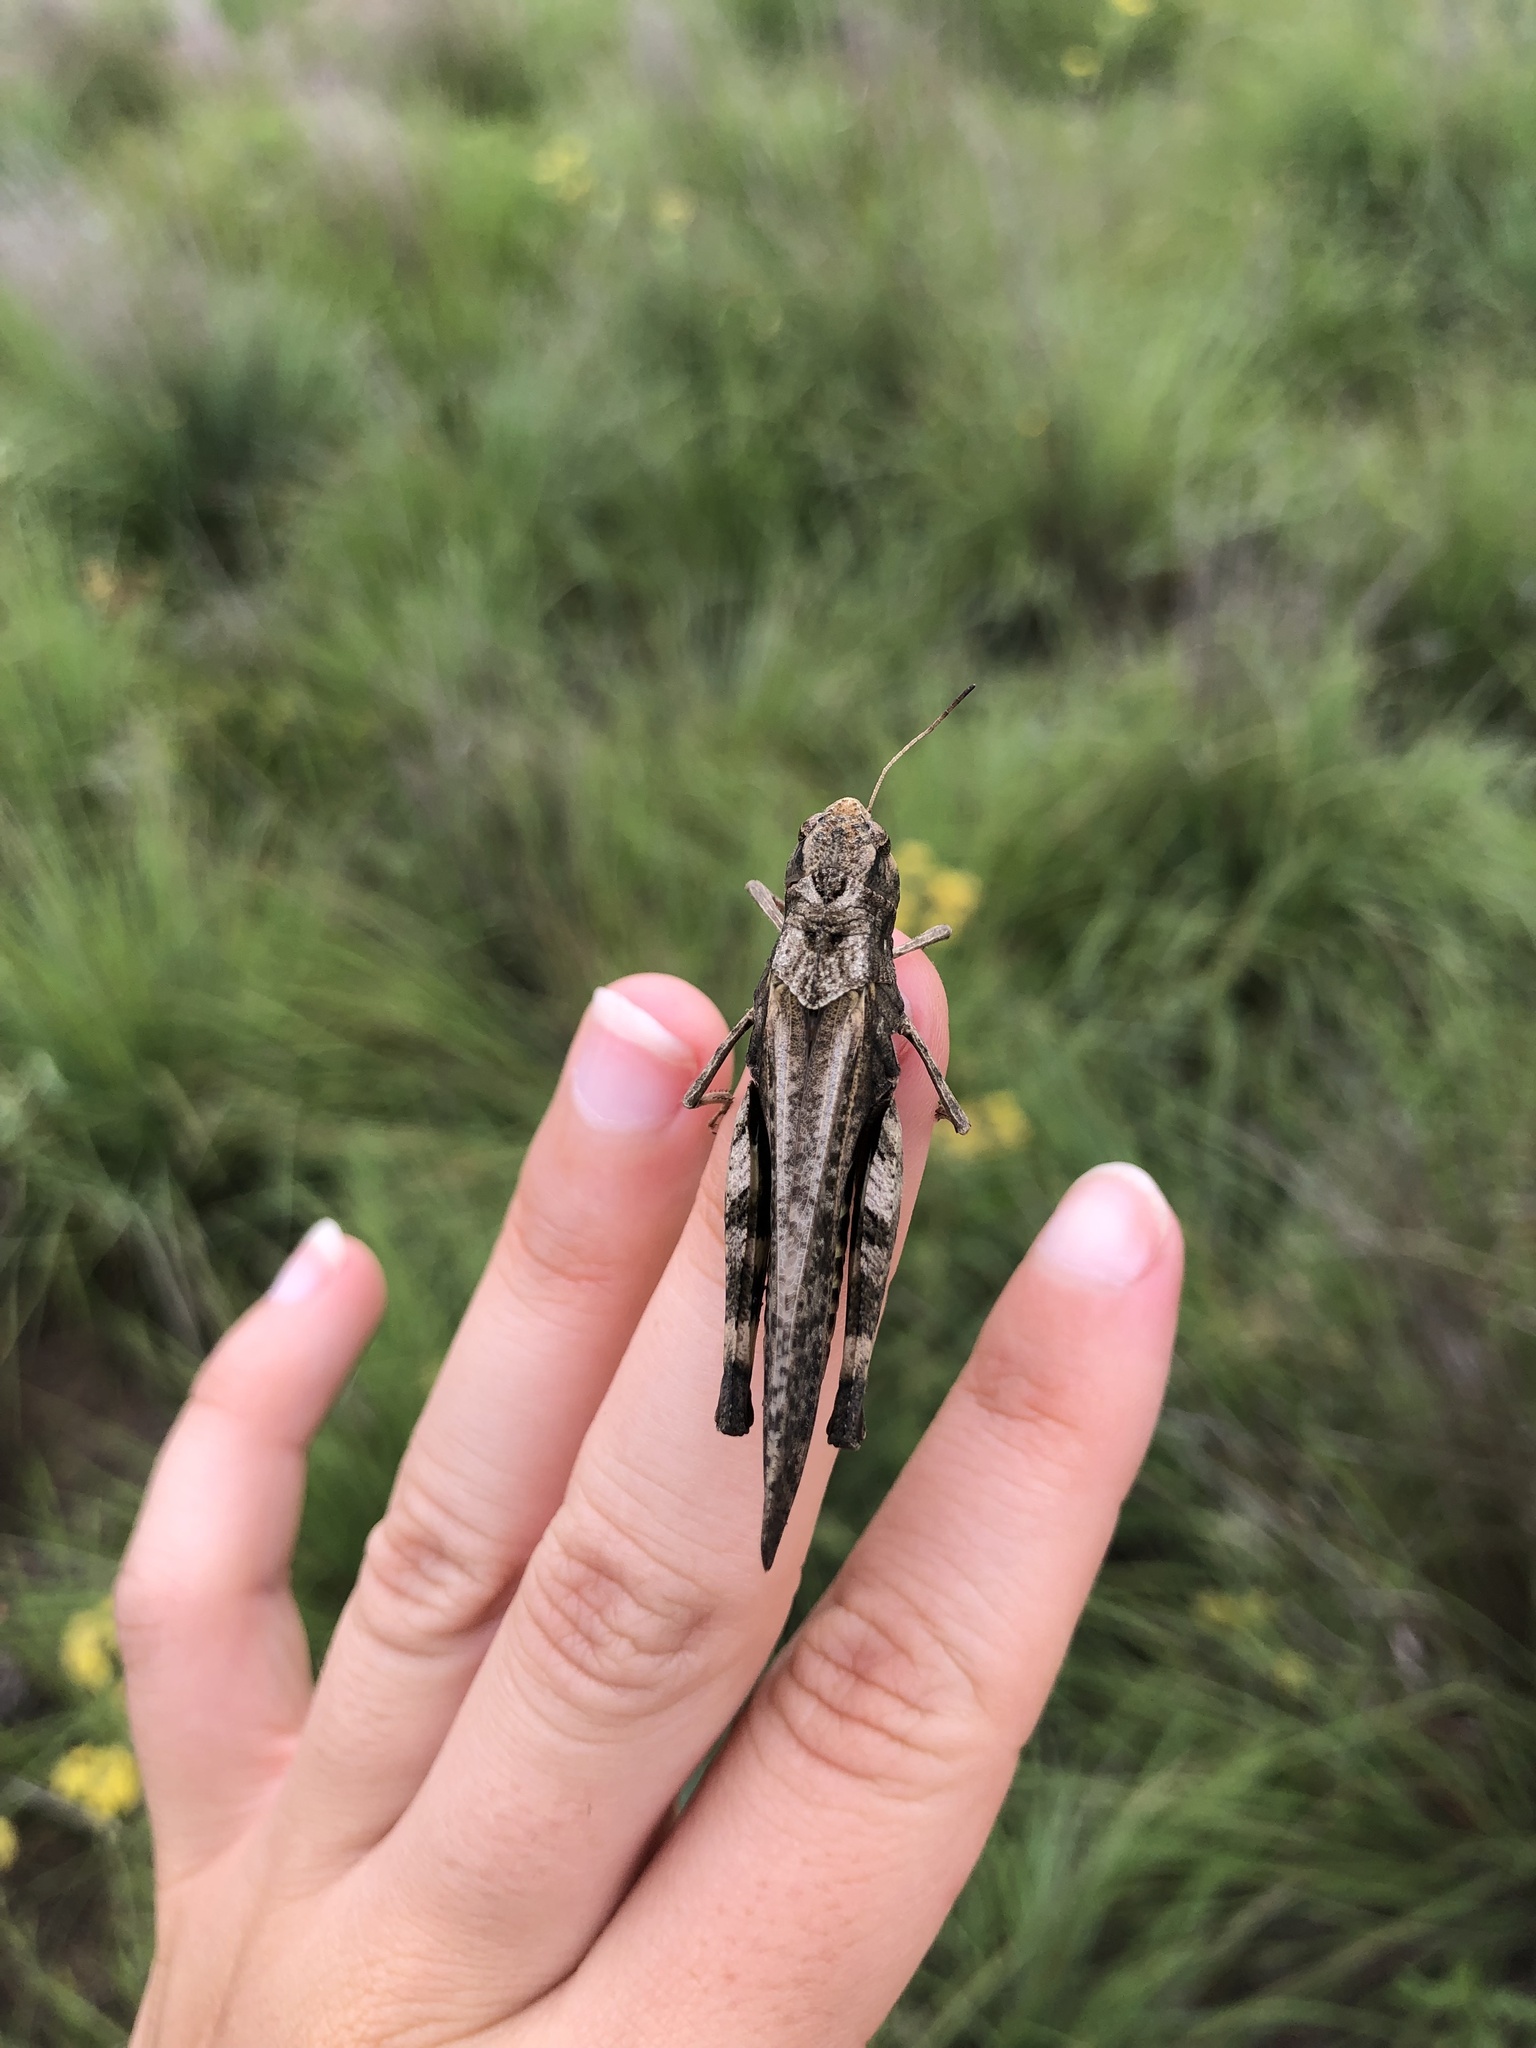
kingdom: Animalia
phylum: Arthropoda
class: Insecta
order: Orthoptera
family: Acrididae
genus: Arphia
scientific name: Arphia simplex
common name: Plains yellow-winged grasshopper
